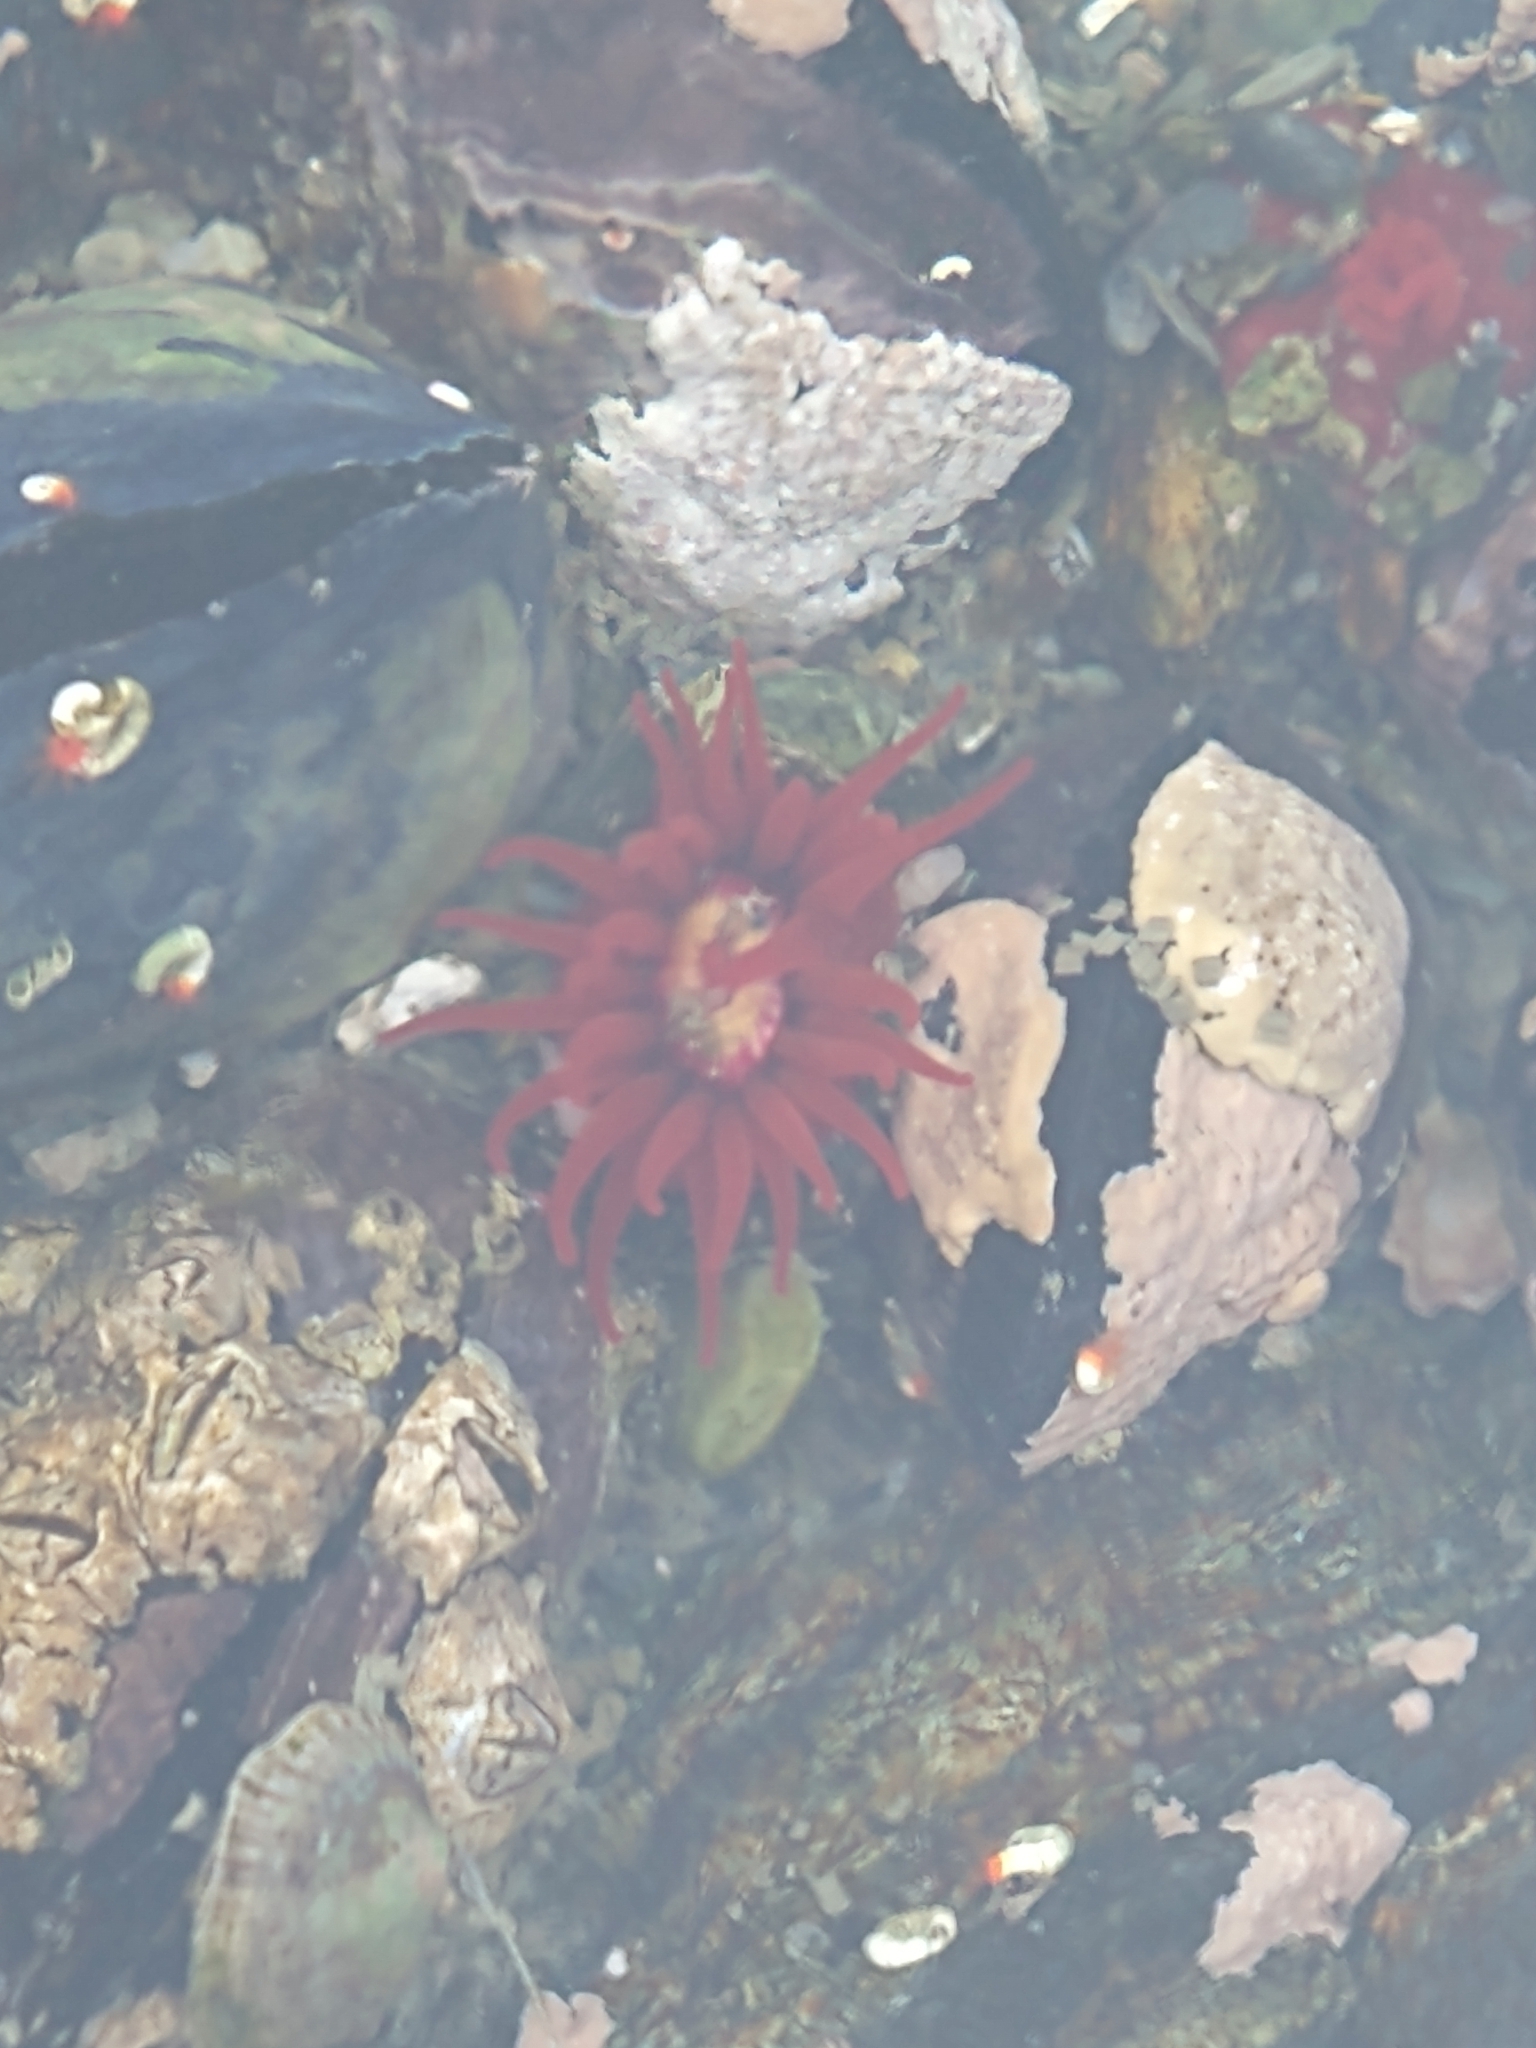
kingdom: Animalia
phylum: Cnidaria
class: Anthozoa
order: Actiniaria
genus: Paractis
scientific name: Paractis impatiens
